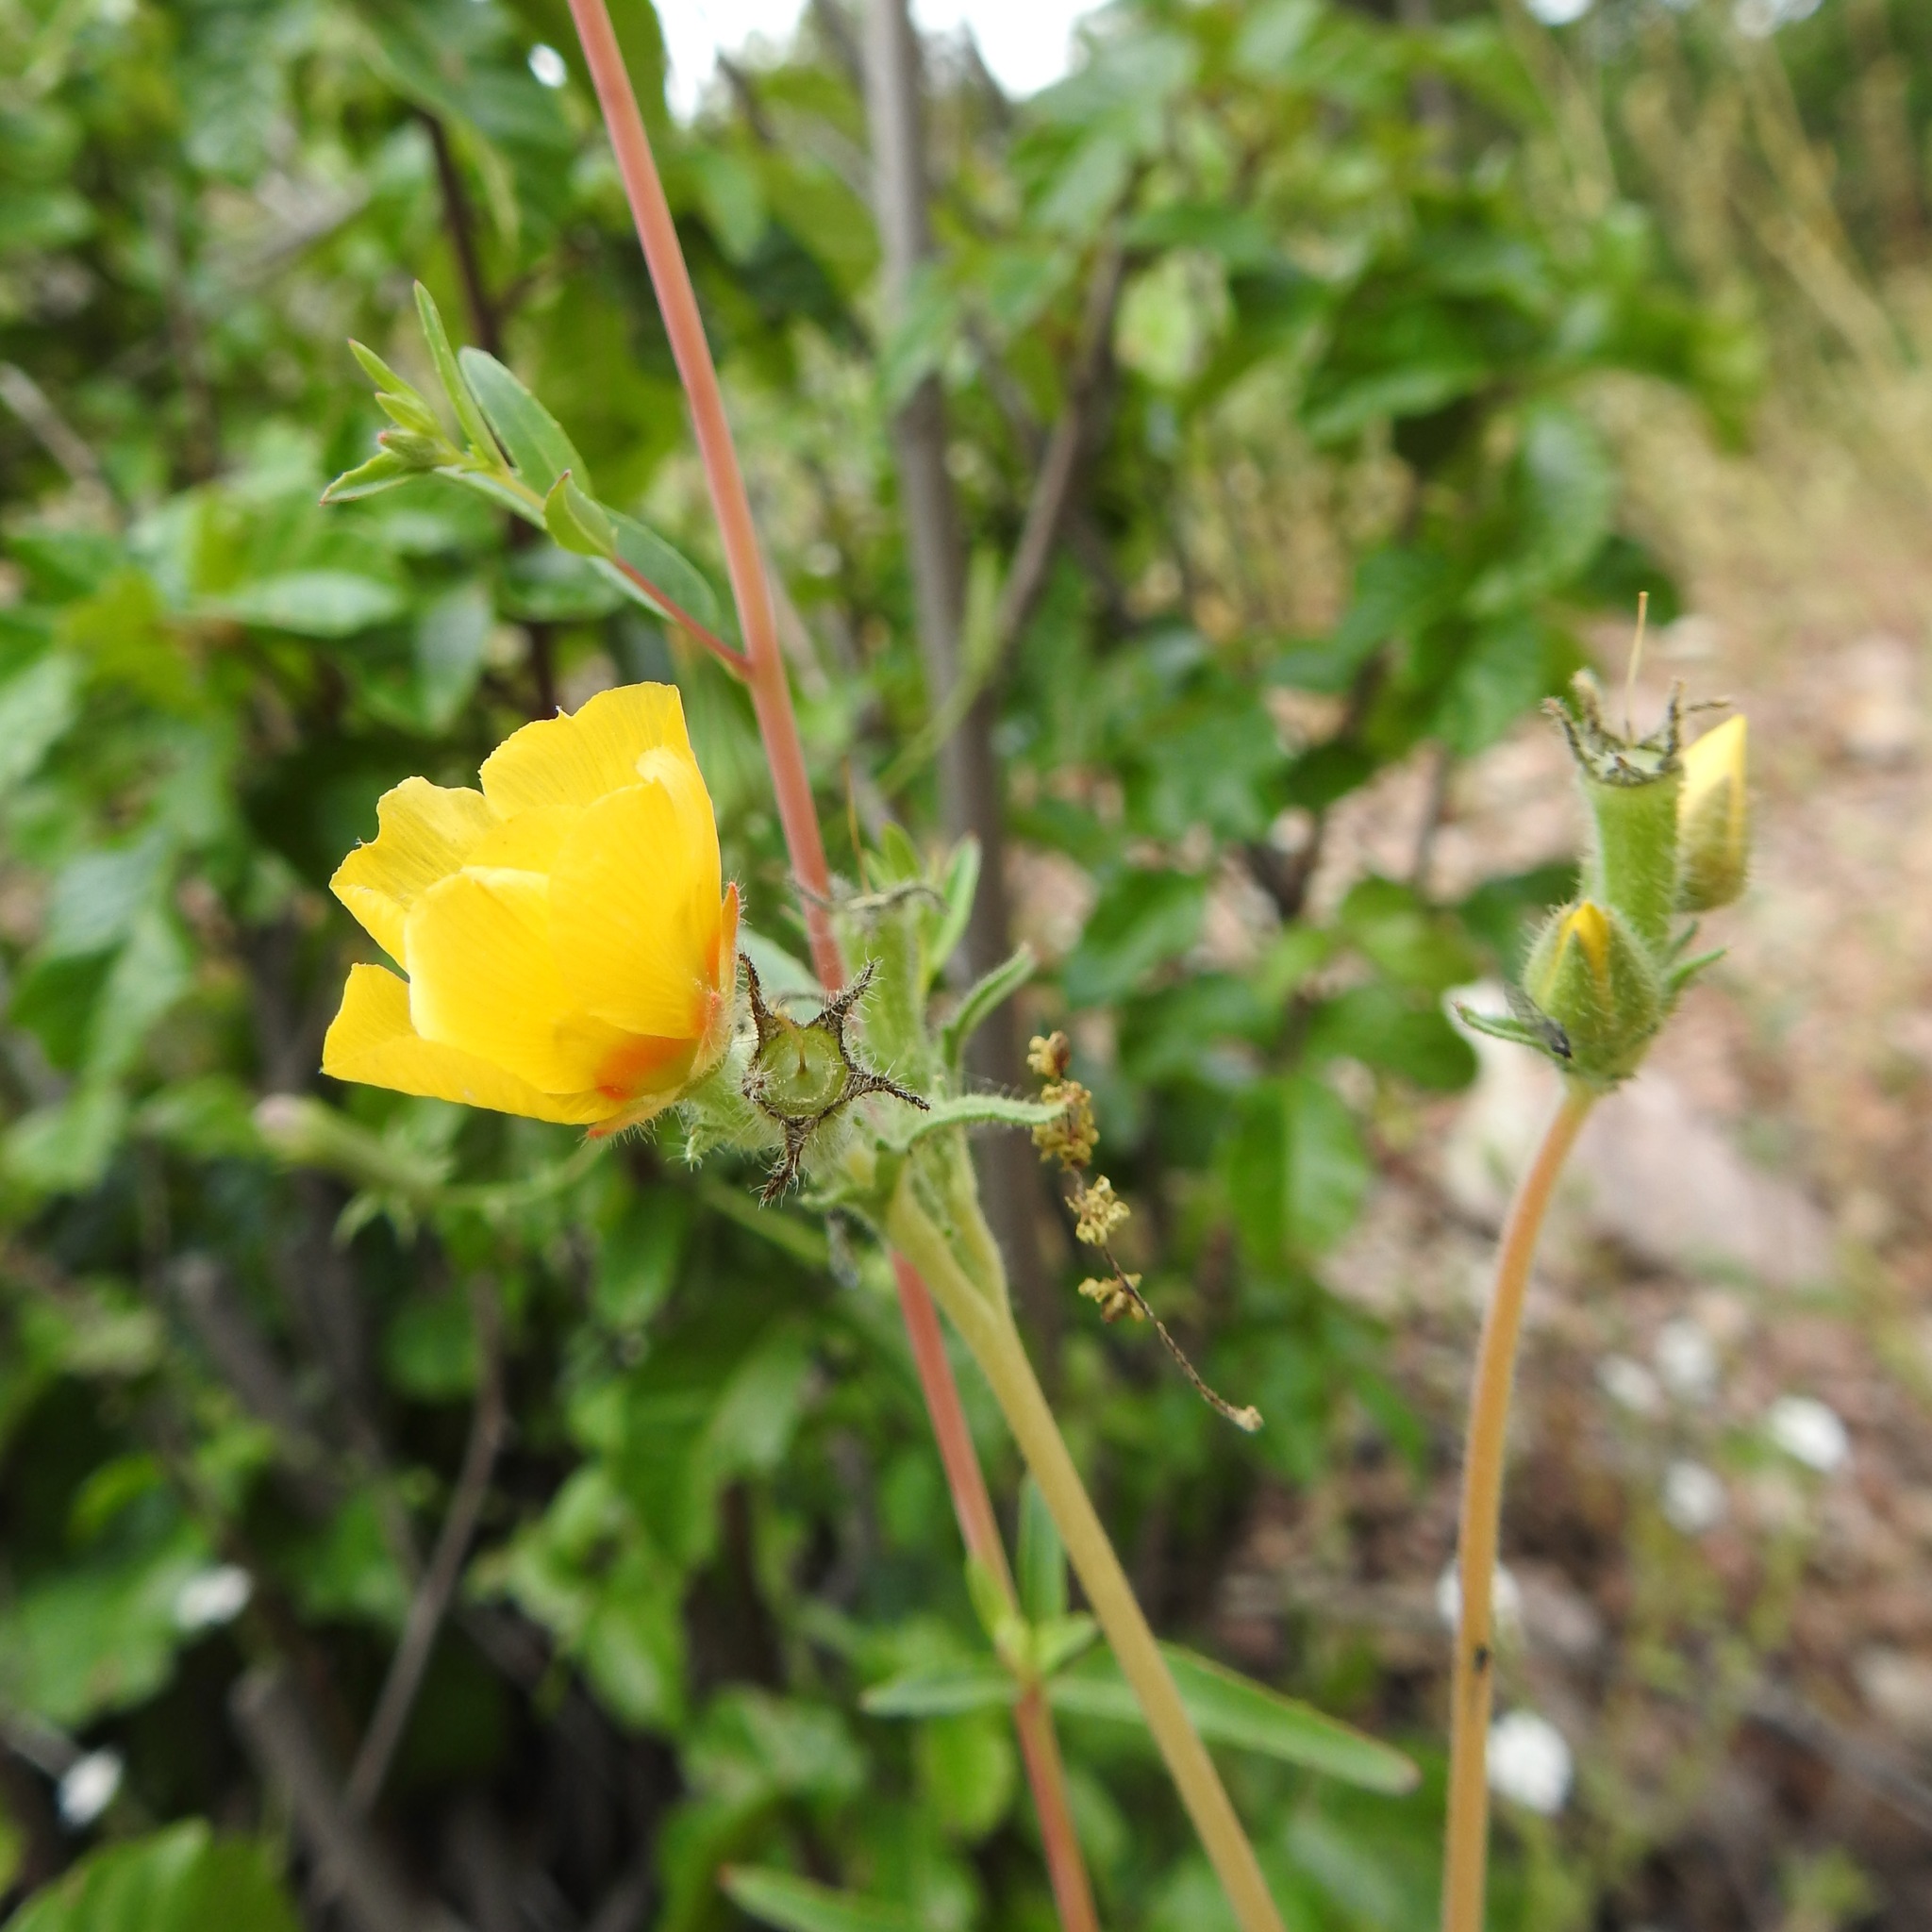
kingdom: Plantae
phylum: Tracheophyta
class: Magnoliopsida
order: Cornales
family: Loasaceae
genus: Mentzelia
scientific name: Mentzelia gracilenta
